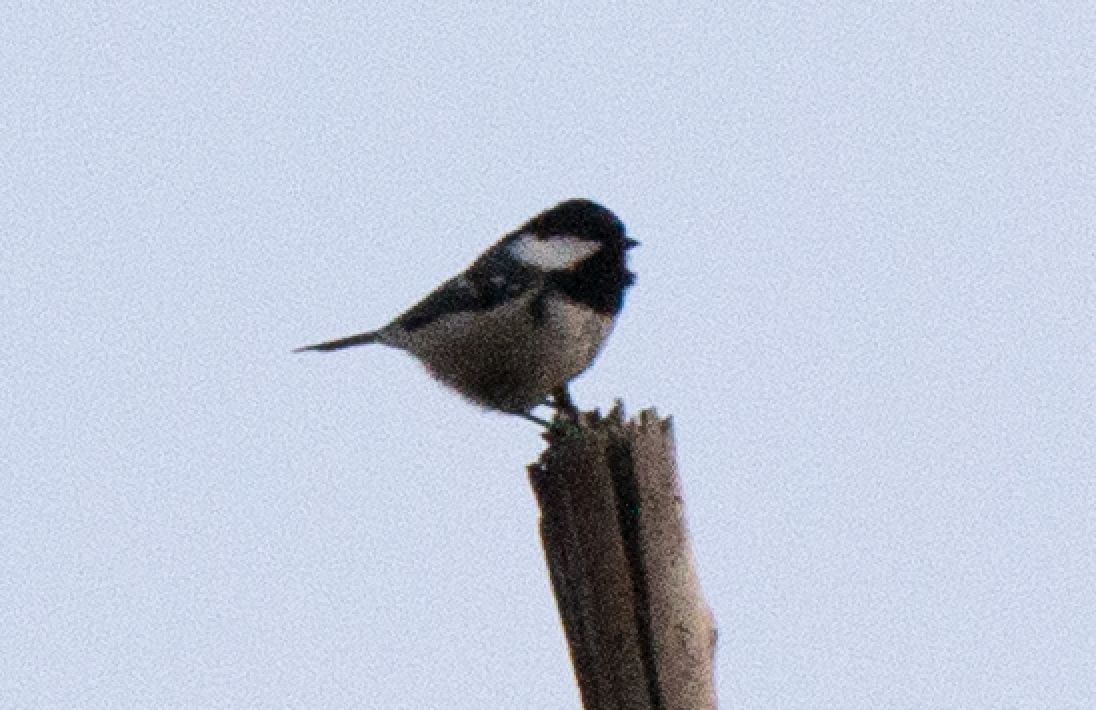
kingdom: Animalia
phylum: Chordata
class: Aves
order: Passeriformes
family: Paridae
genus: Periparus
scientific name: Periparus ater
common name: Coal tit
